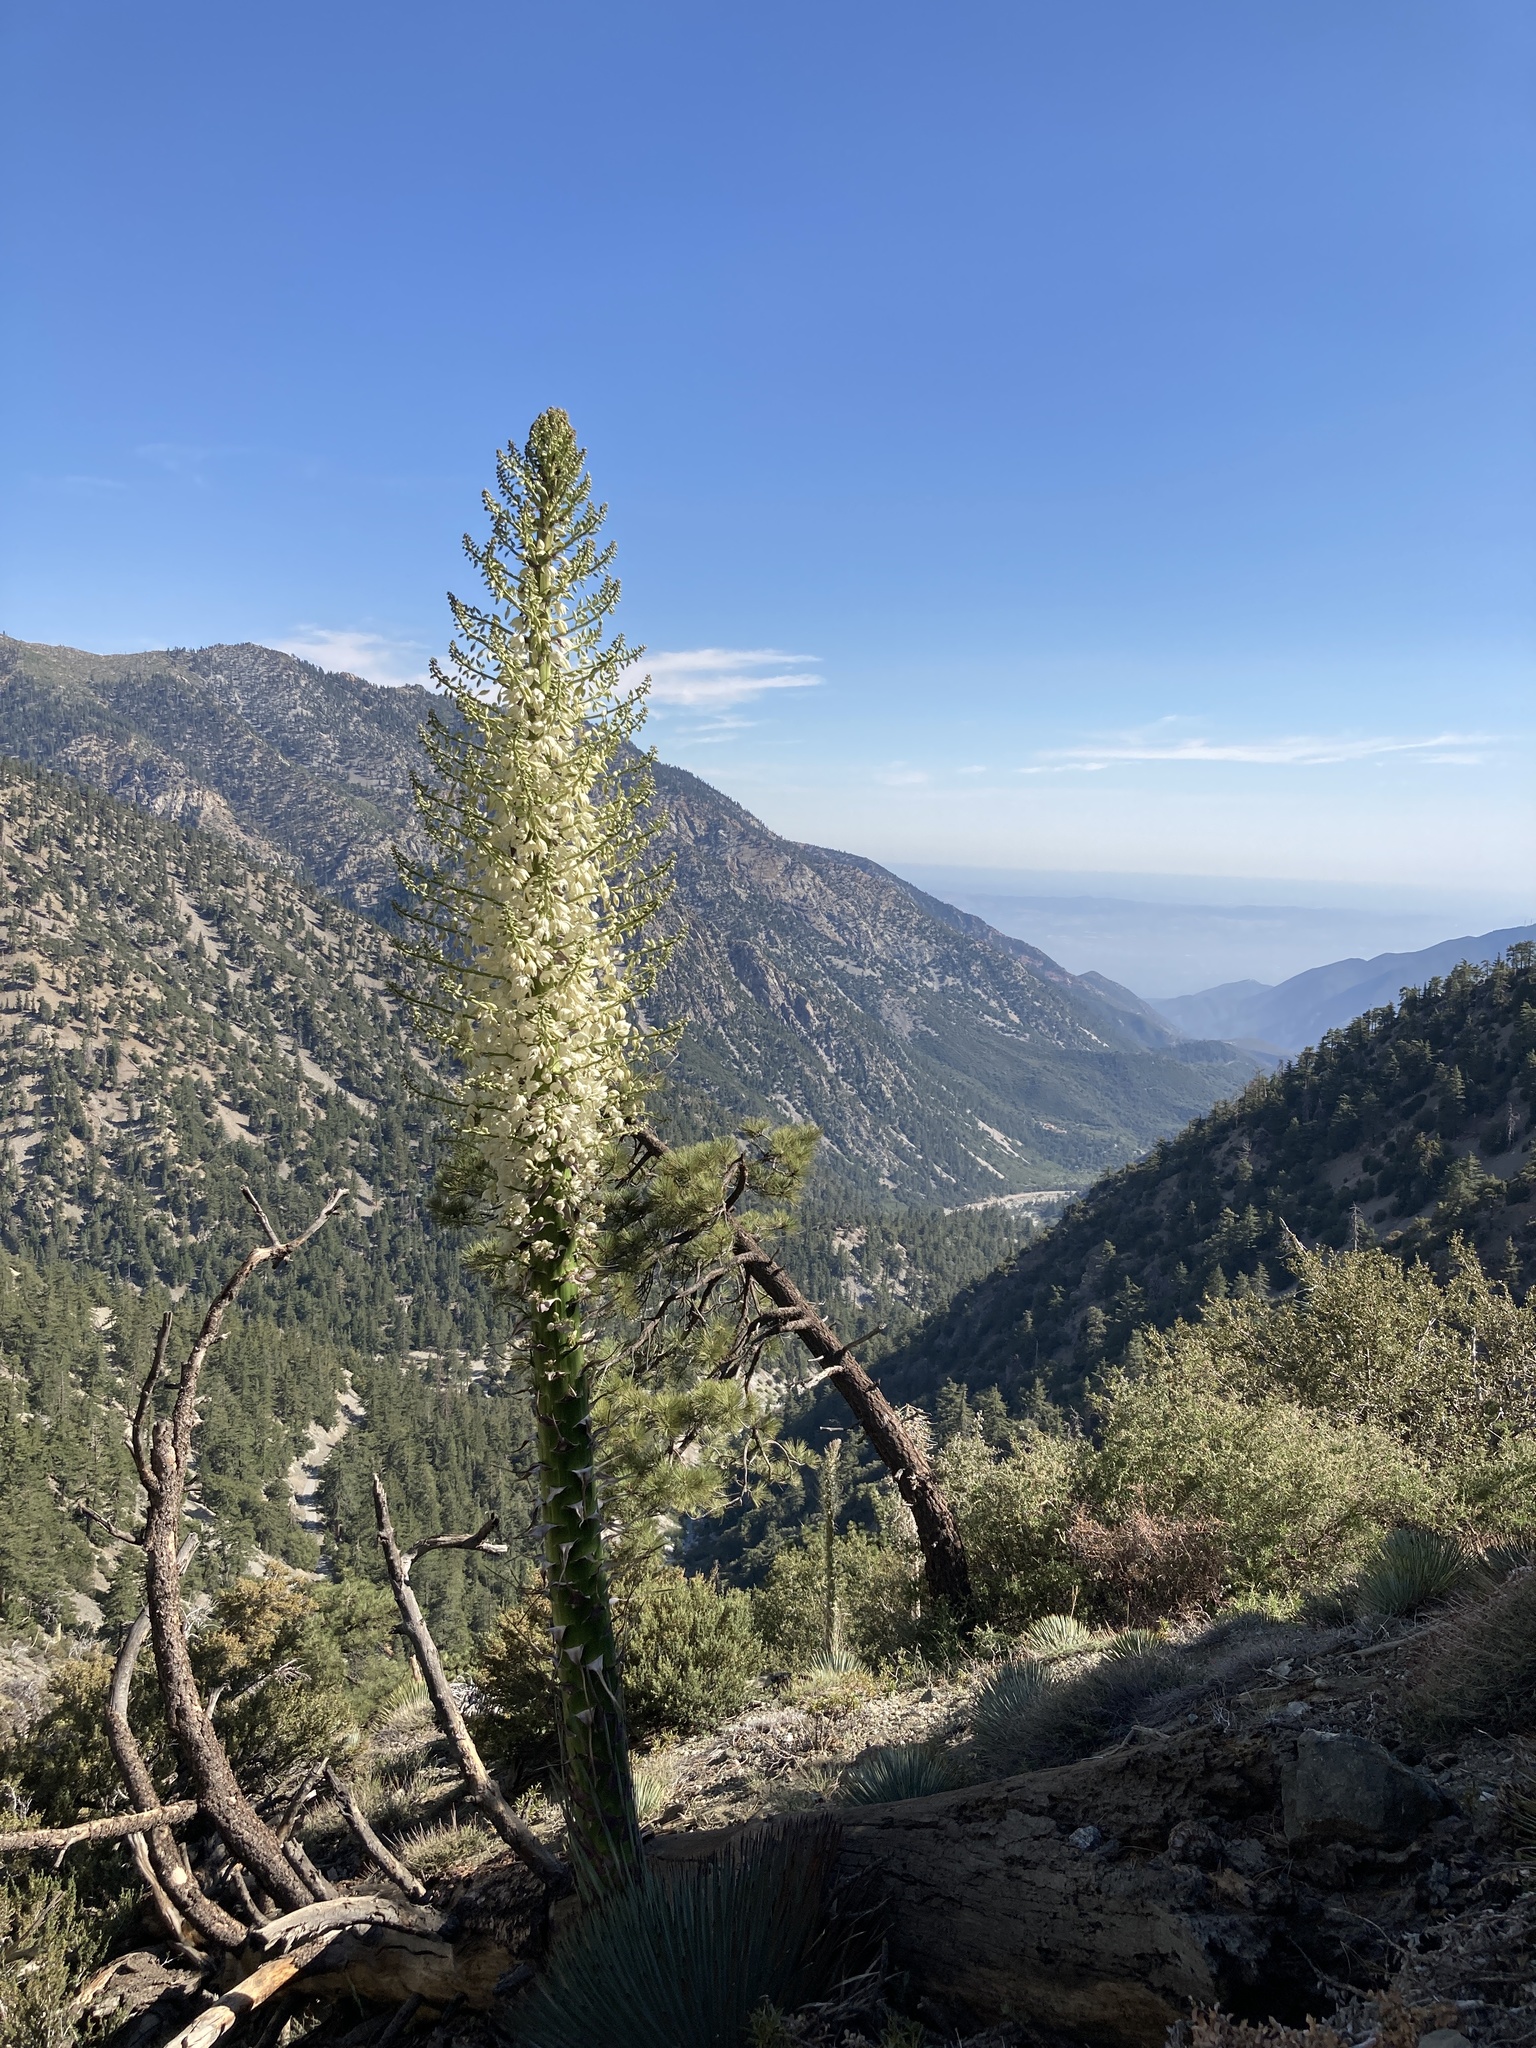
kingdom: Plantae
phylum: Tracheophyta
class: Liliopsida
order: Asparagales
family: Asparagaceae
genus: Hesperoyucca
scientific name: Hesperoyucca whipplei
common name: Our lord's-candle
